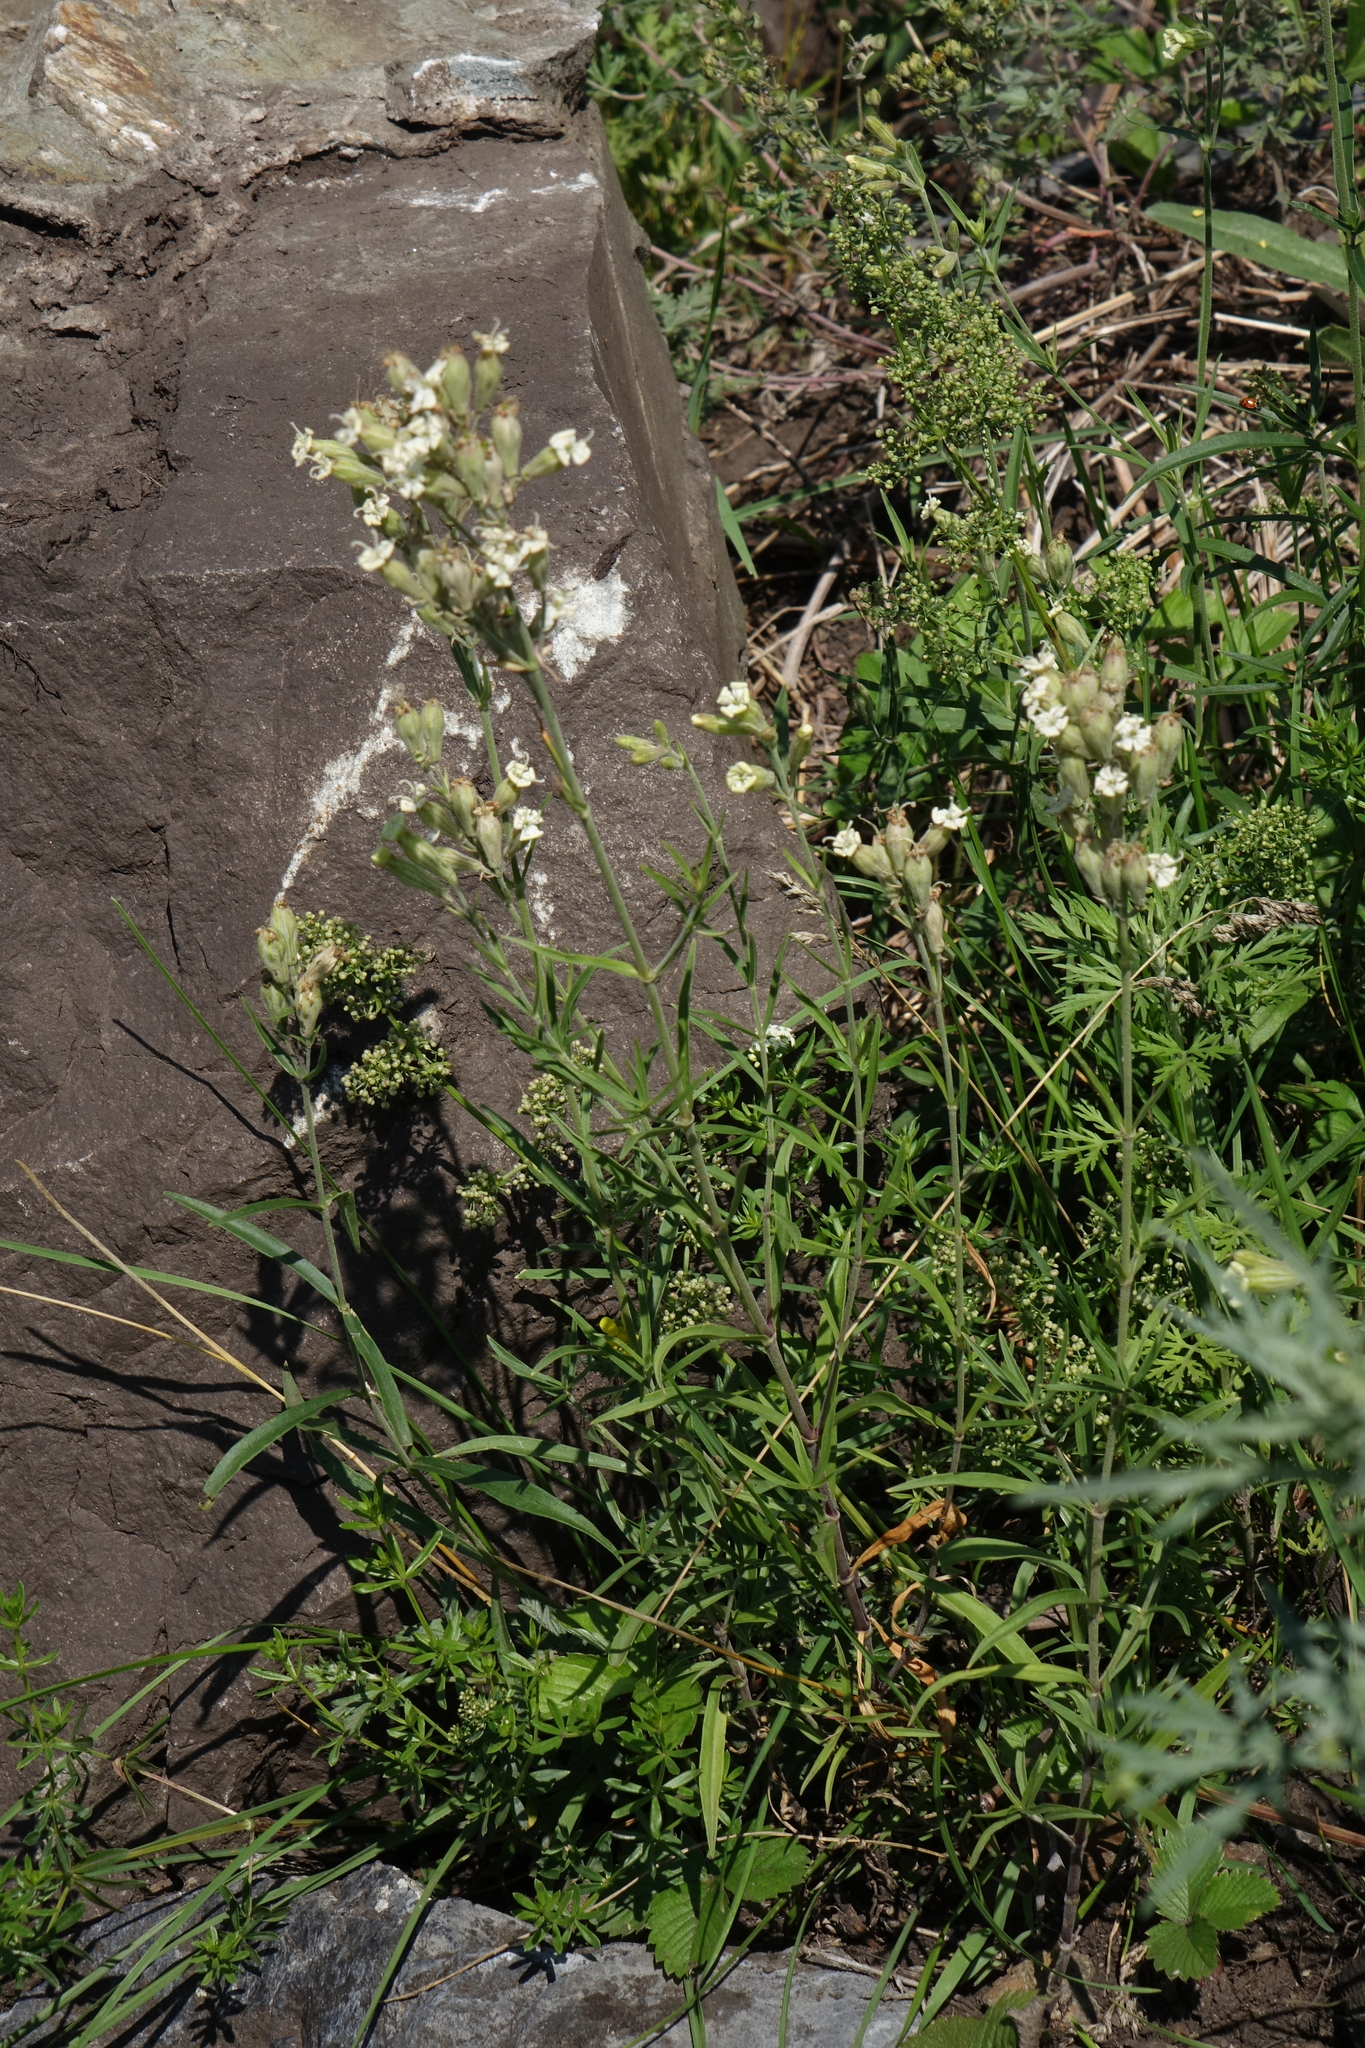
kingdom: Plantae
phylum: Tracheophyta
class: Magnoliopsida
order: Caryophyllales
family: Caryophyllaceae
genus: Silene
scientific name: Silene amoena
